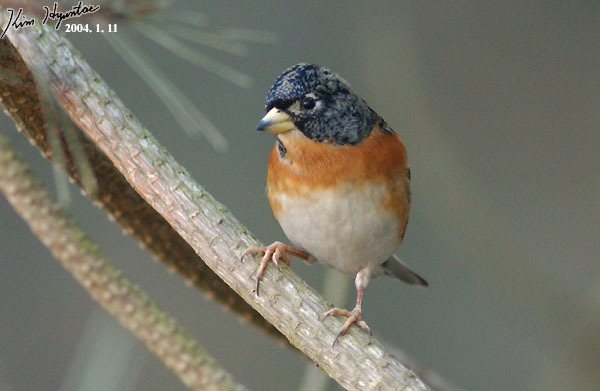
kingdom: Animalia
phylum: Chordata
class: Aves
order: Passeriformes
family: Fringillidae
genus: Fringilla
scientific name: Fringilla montifringilla
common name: Brambling
